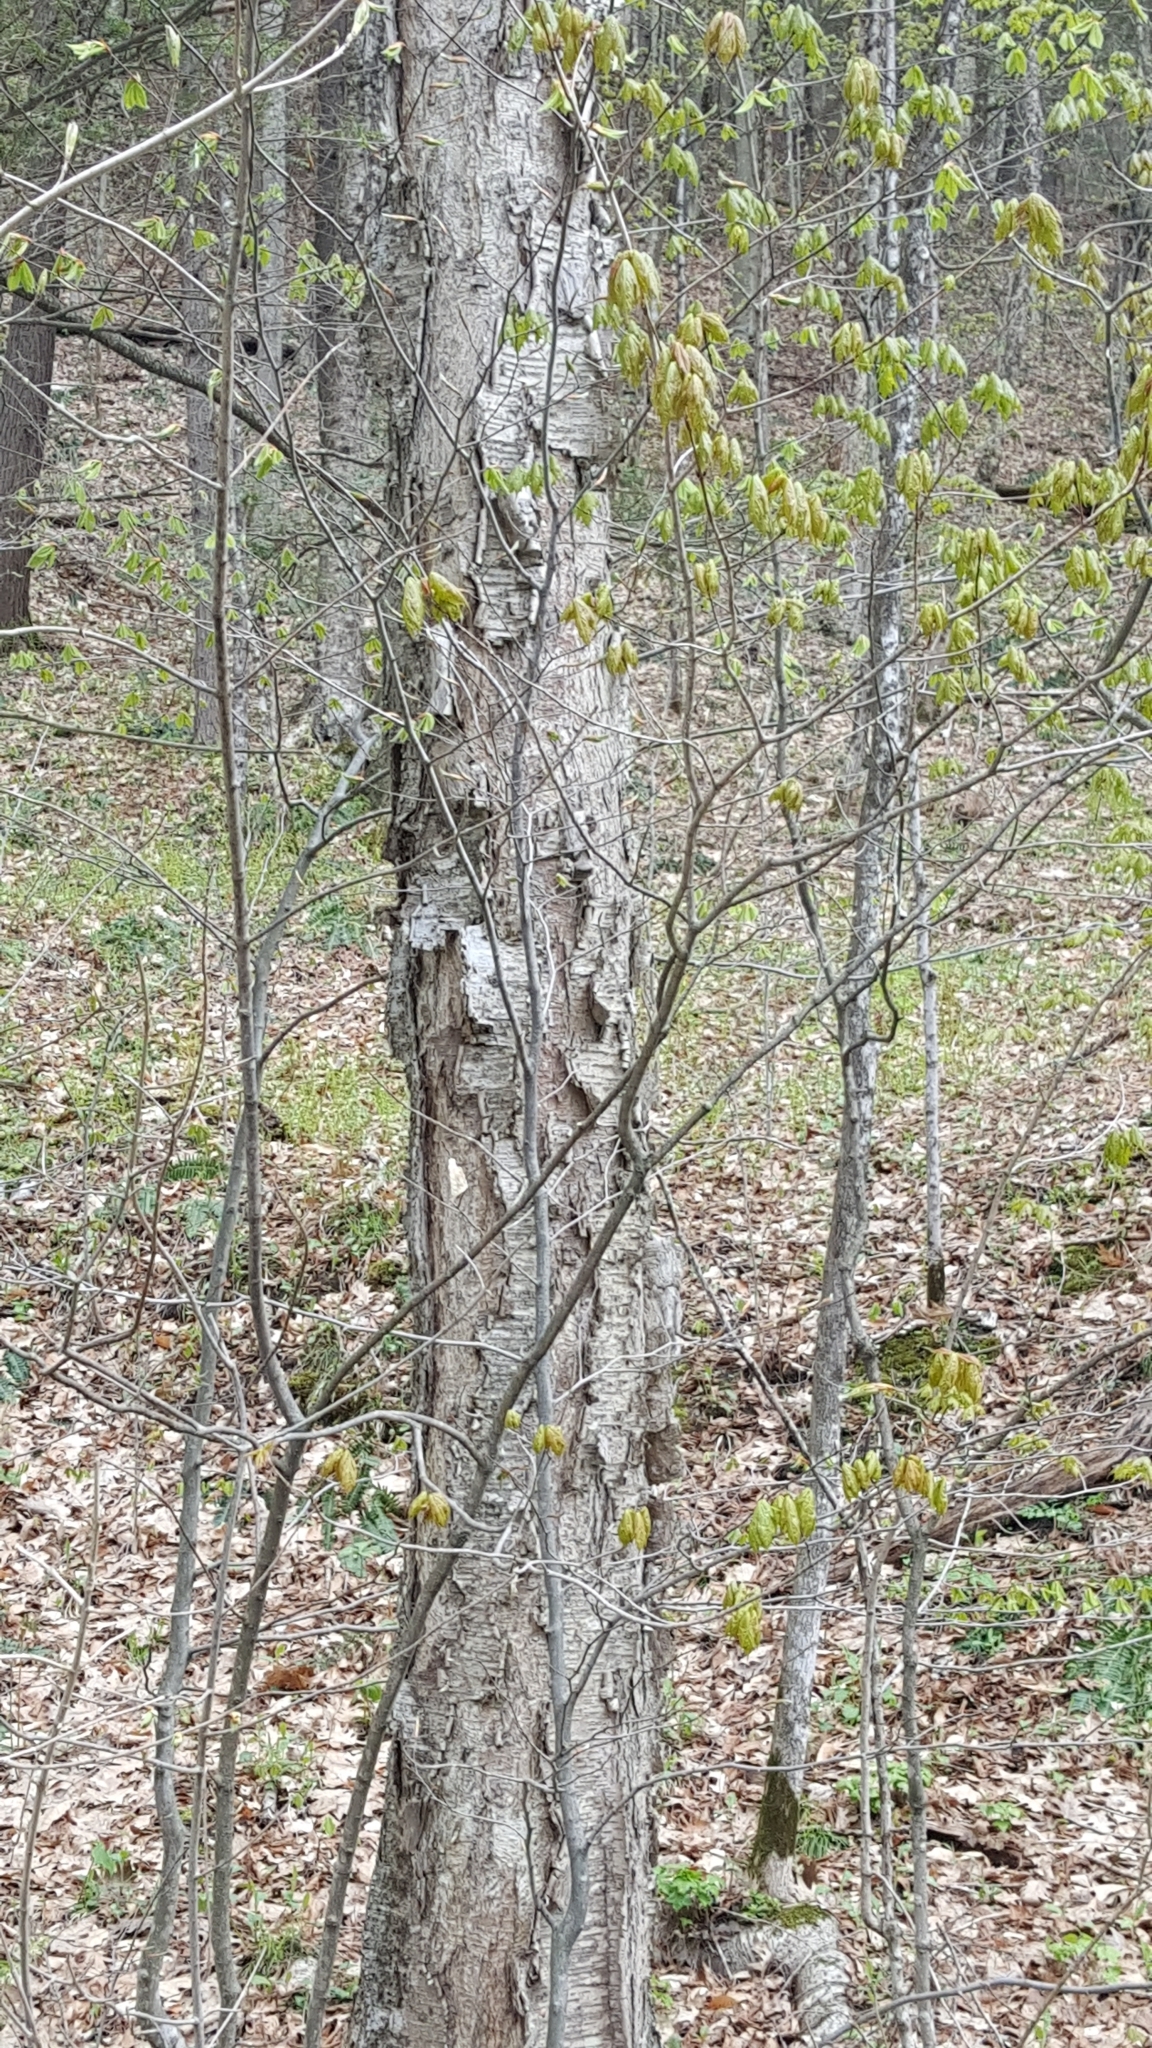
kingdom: Plantae
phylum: Tracheophyta
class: Magnoliopsida
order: Fagales
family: Betulaceae
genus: Betula
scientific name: Betula alleghaniensis
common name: Yellow birch
